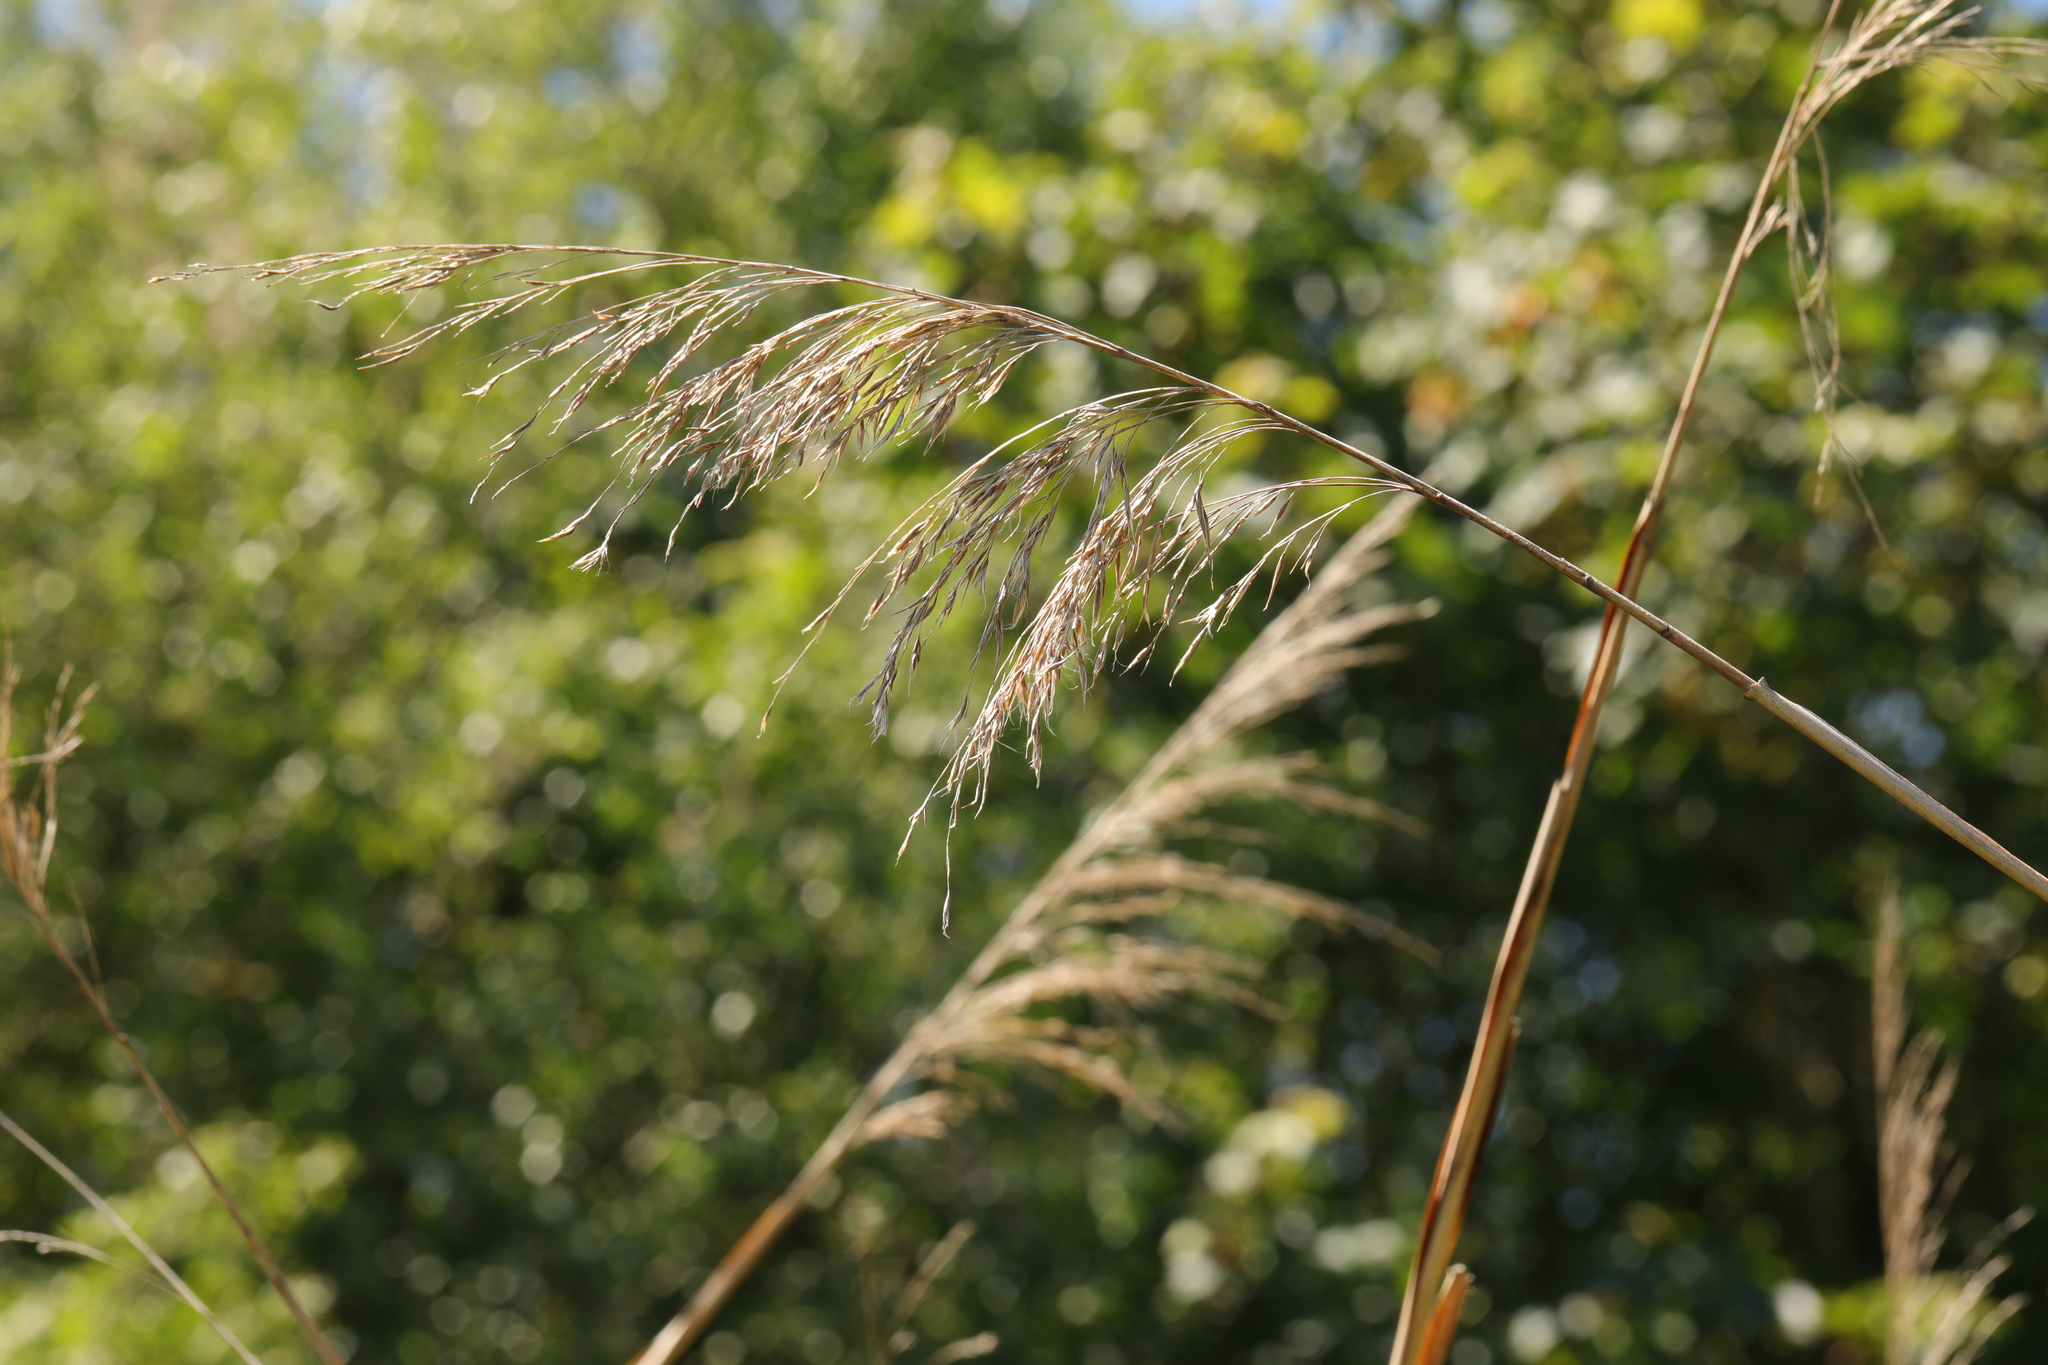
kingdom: Plantae
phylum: Tracheophyta
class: Liliopsida
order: Poales
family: Poaceae
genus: Phragmites
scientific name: Phragmites australis
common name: Common reed
